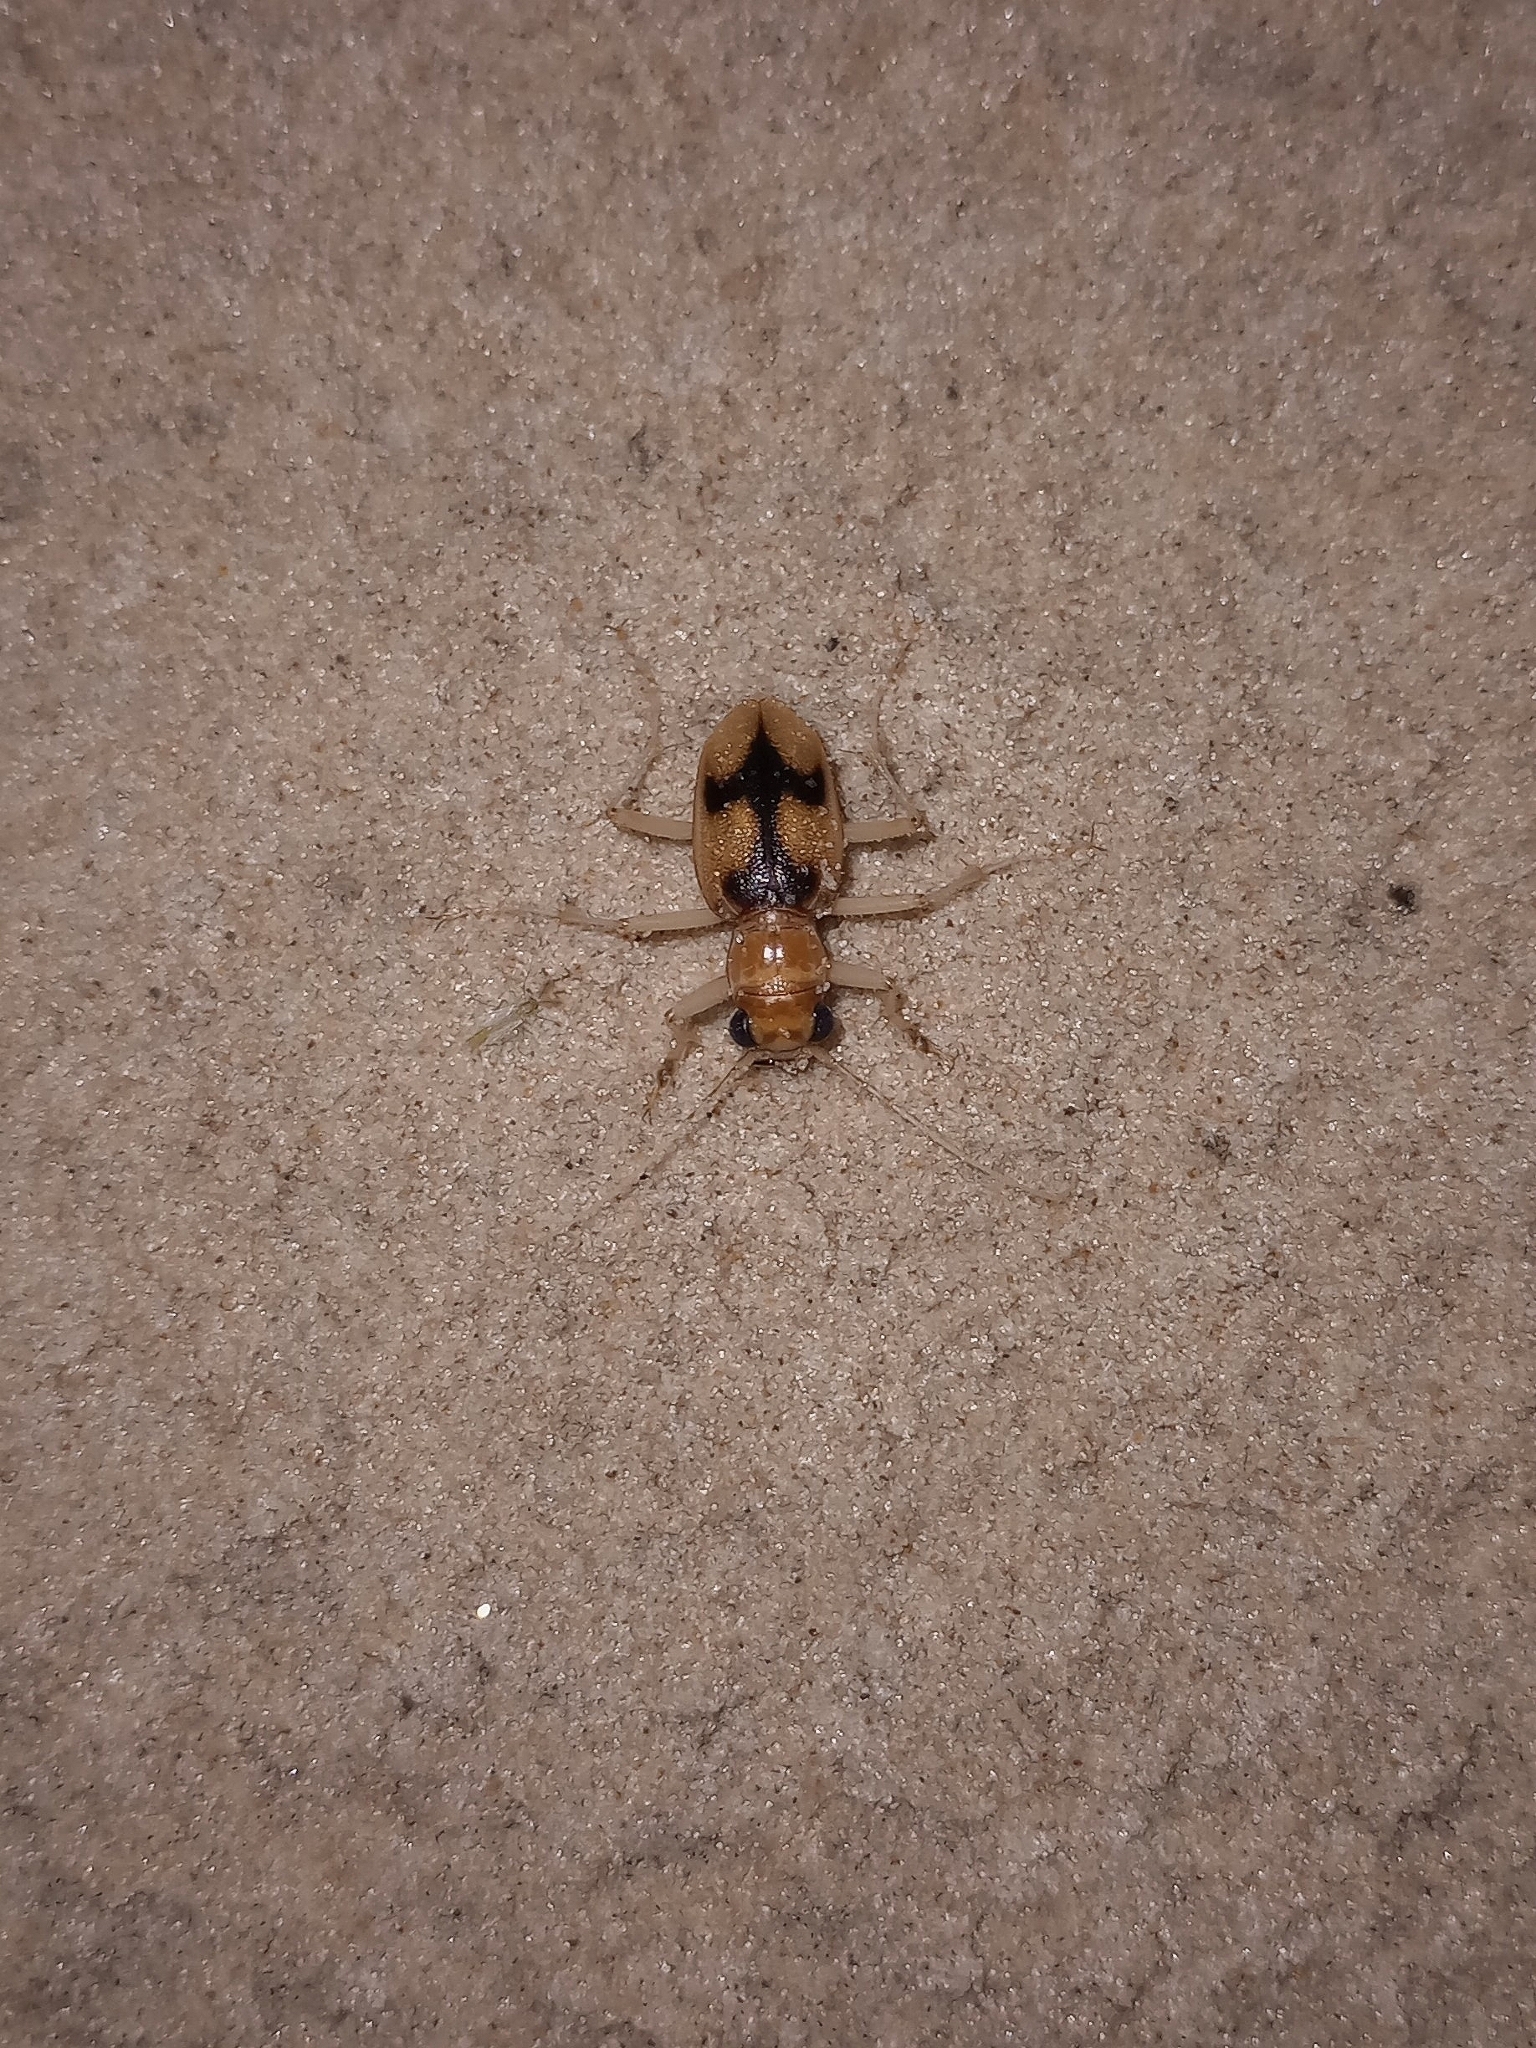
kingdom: Animalia
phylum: Arthropoda
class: Insecta
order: Coleoptera
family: Carabidae
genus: Phaeoxantha
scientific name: Phaeoxantha cruciata
